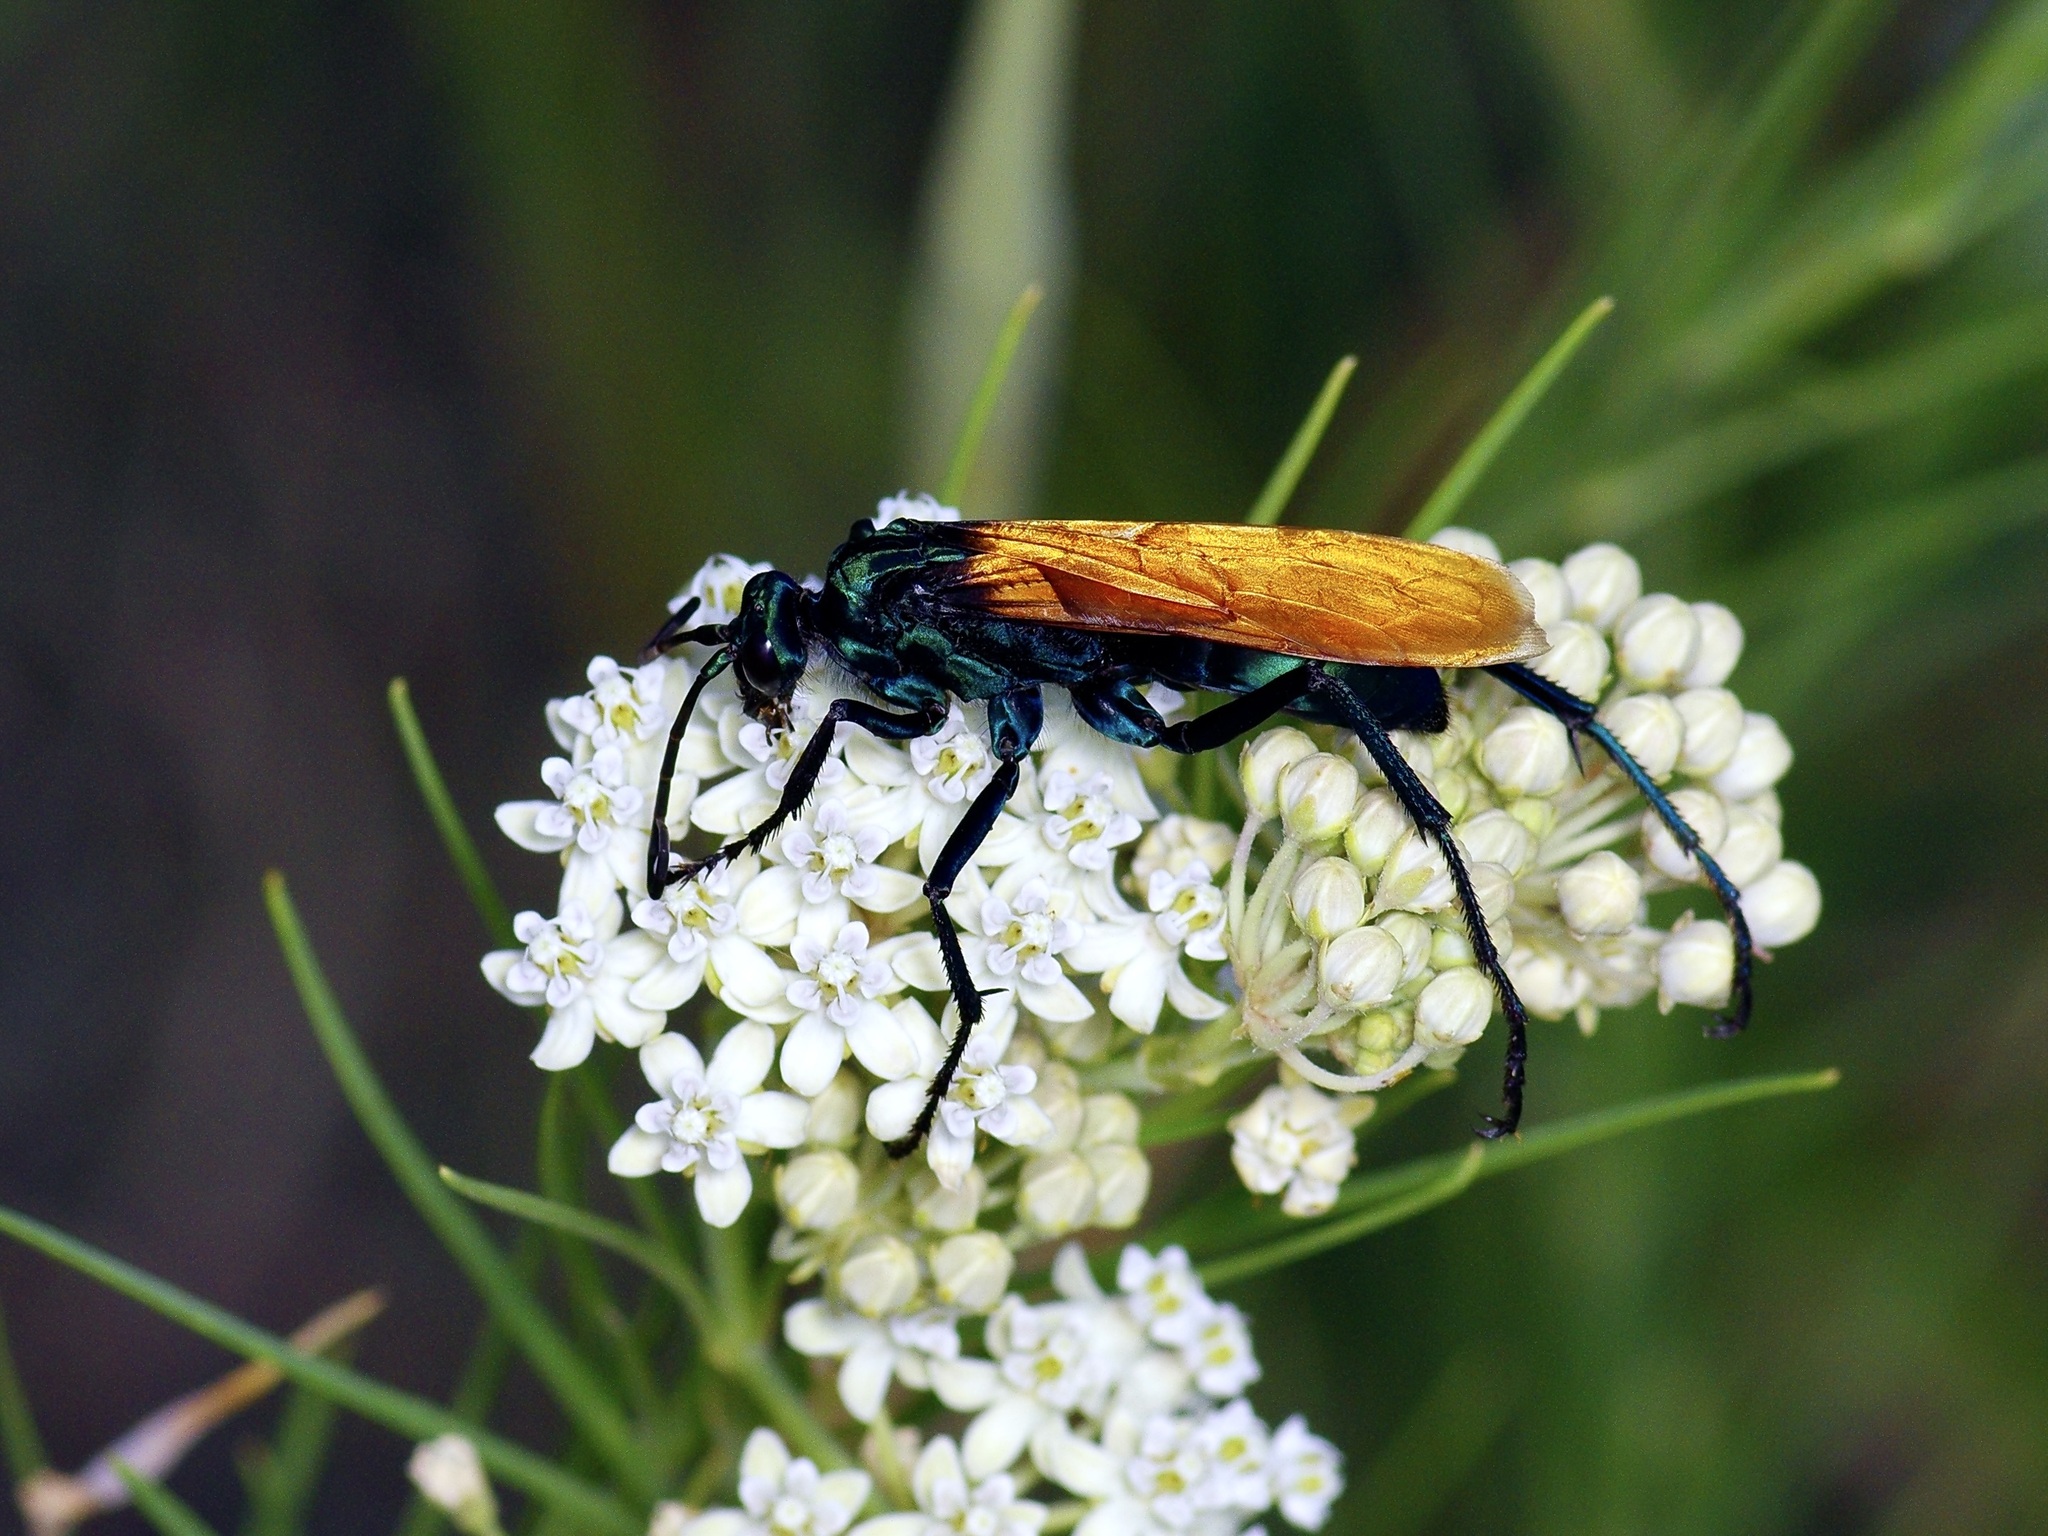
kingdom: Animalia
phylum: Arthropoda
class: Insecta
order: Hymenoptera
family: Pompilidae
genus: Pepsis
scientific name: Pepsis thisbe
